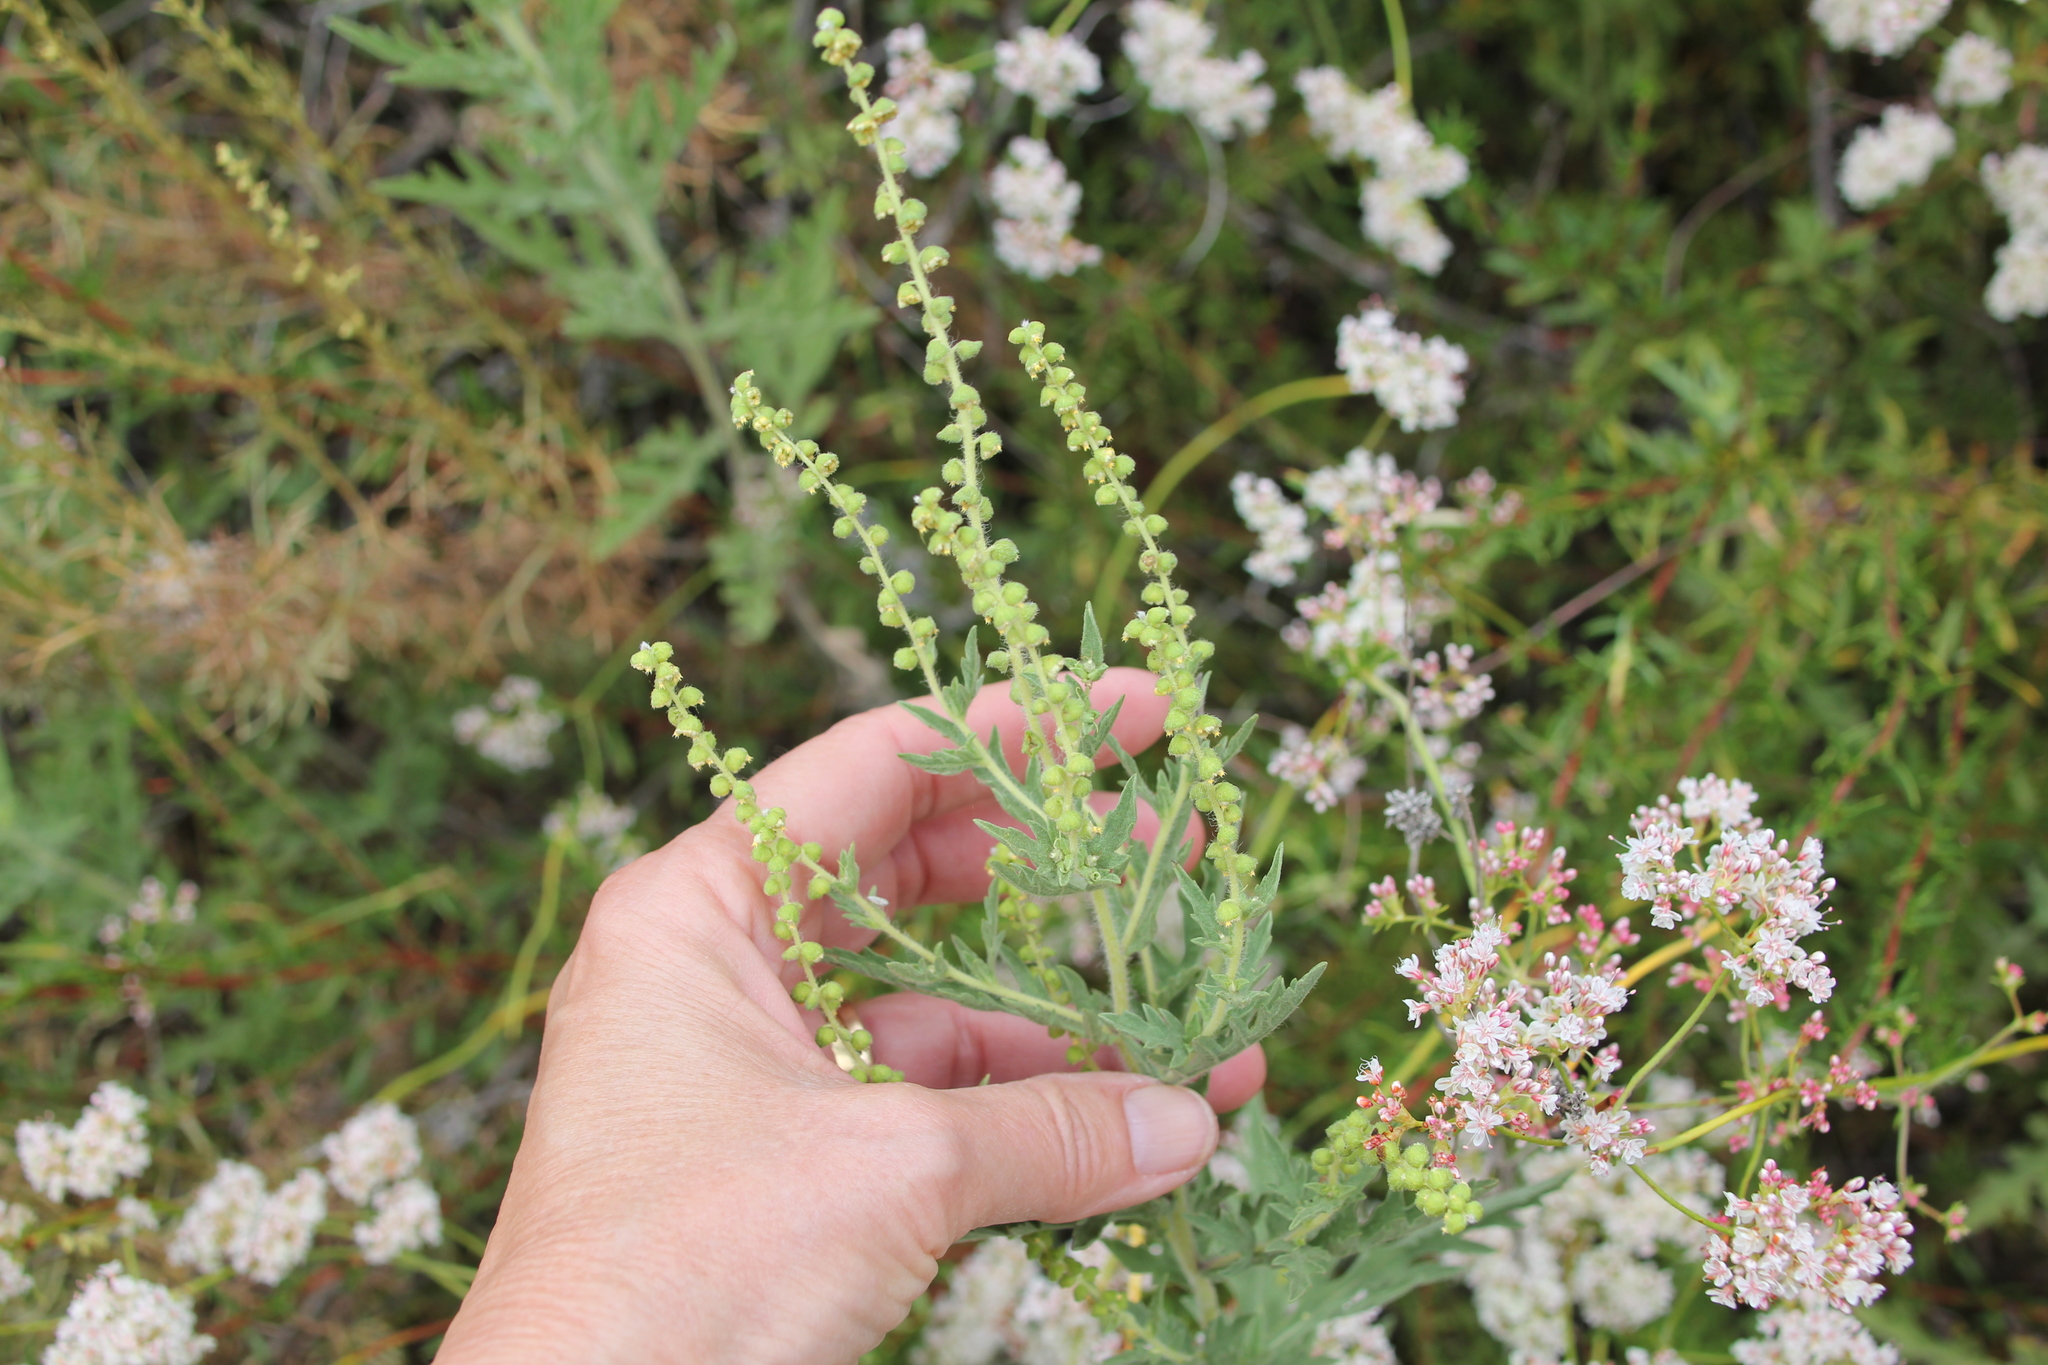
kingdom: Plantae
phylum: Tracheophyta
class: Magnoliopsida
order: Asterales
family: Asteraceae
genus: Ambrosia
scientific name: Ambrosia psilostachya
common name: Perennial ragweed
